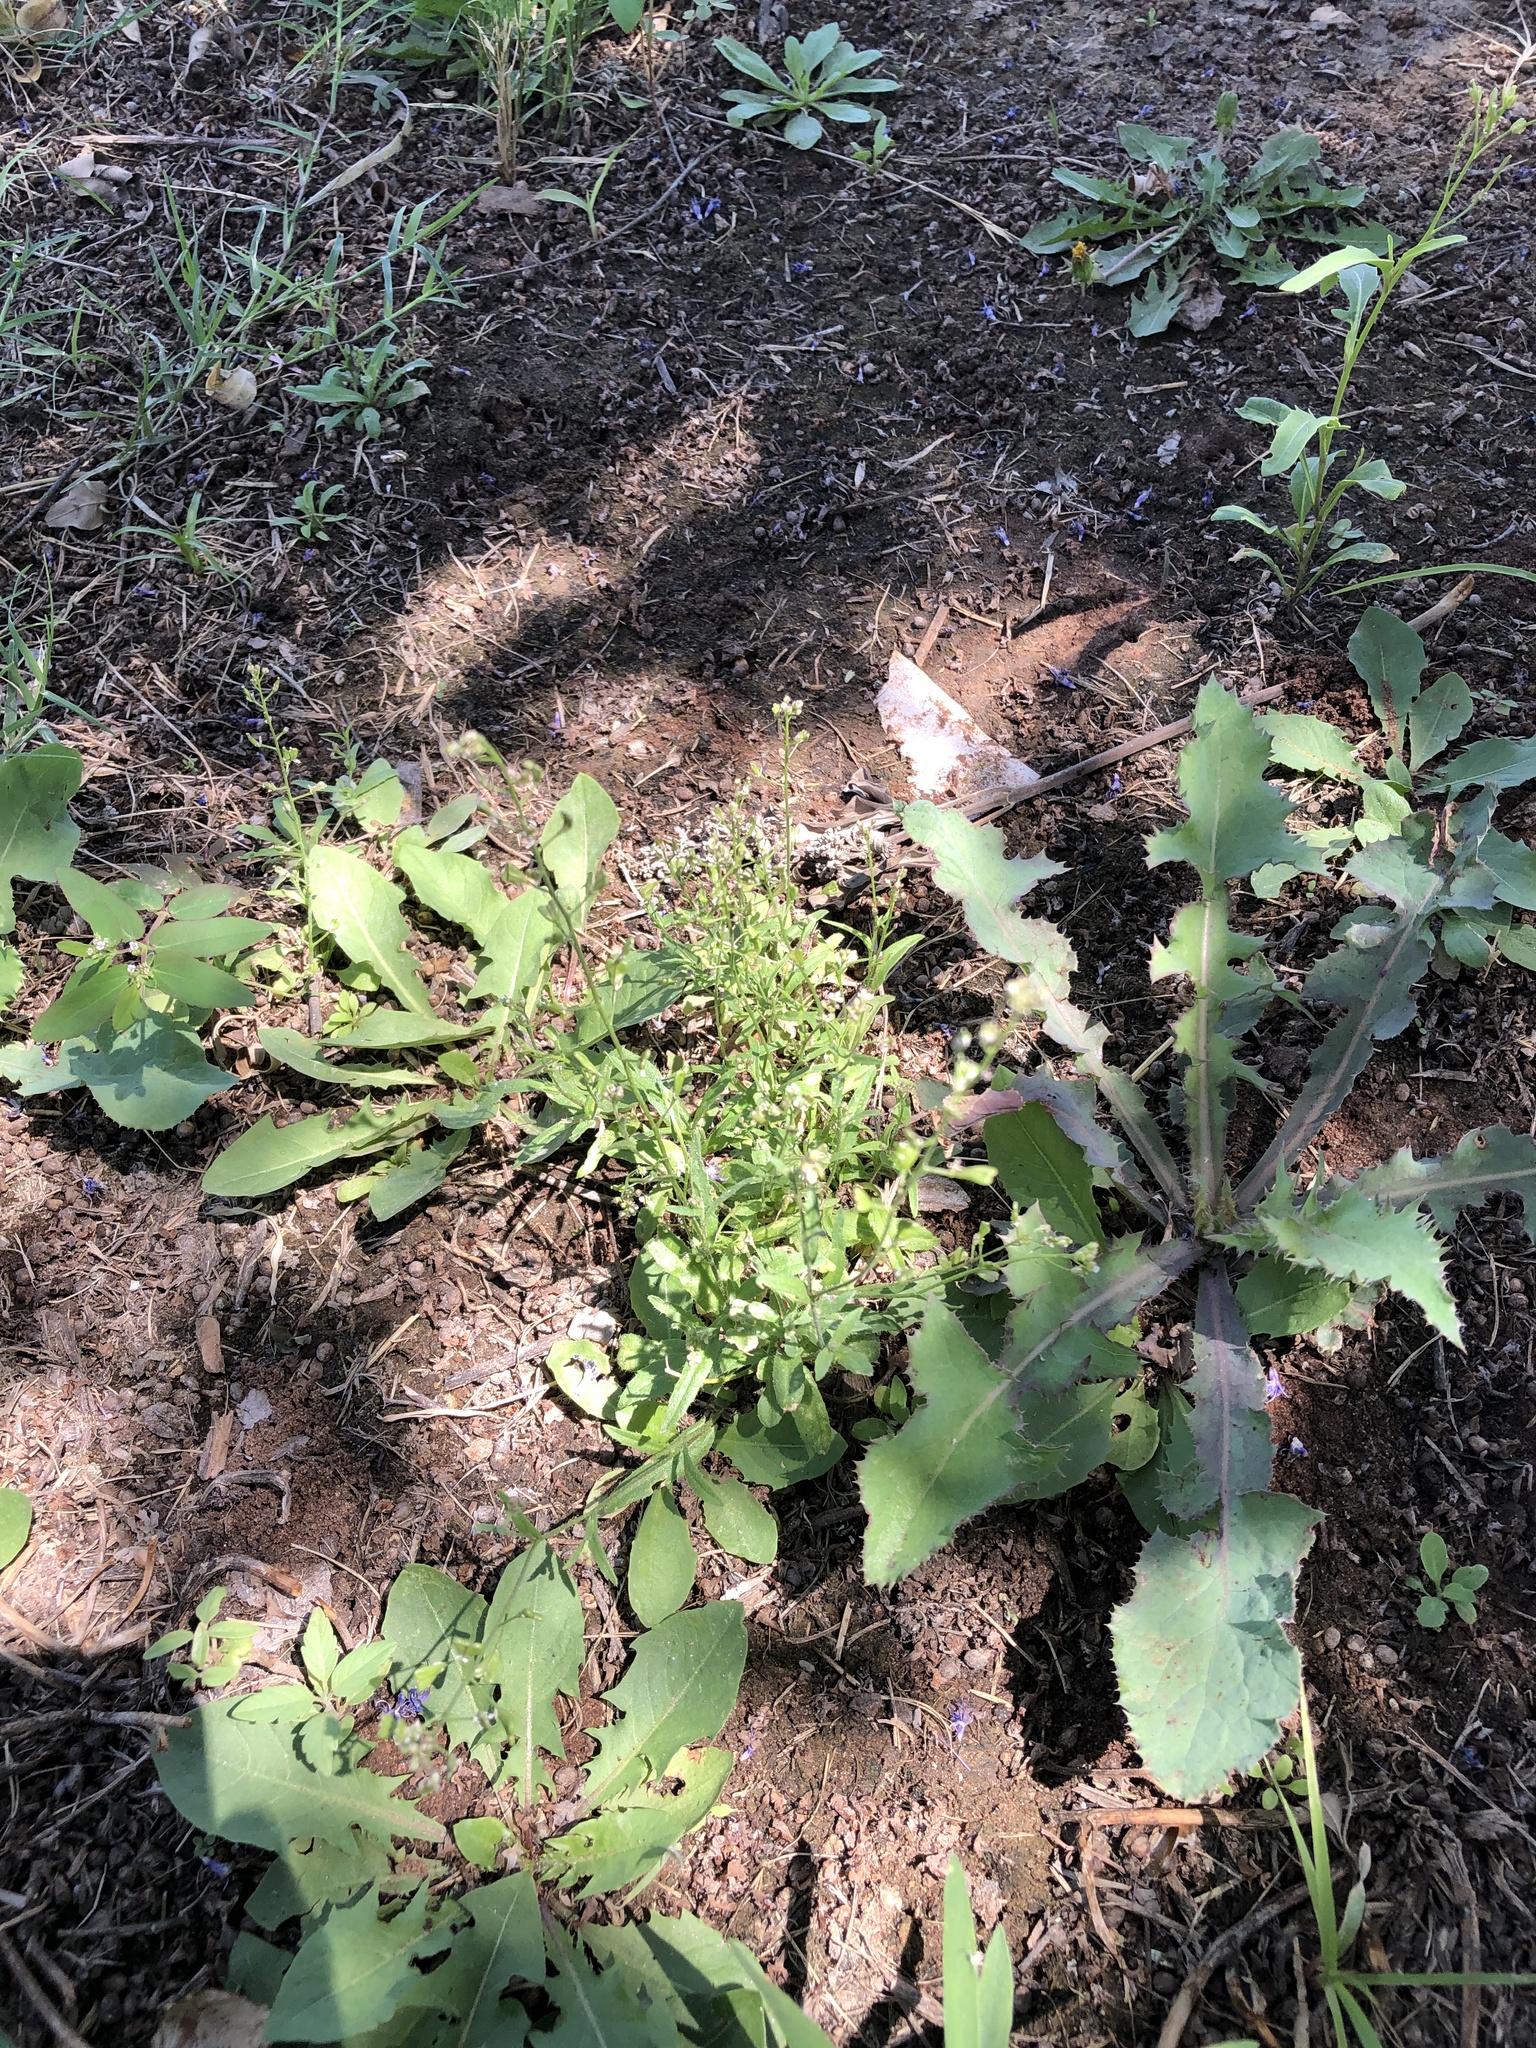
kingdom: Plantae
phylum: Tracheophyta
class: Magnoliopsida
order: Brassicales
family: Brassicaceae
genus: Capsella
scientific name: Capsella bursa-pastoris
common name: Shepherd's purse
